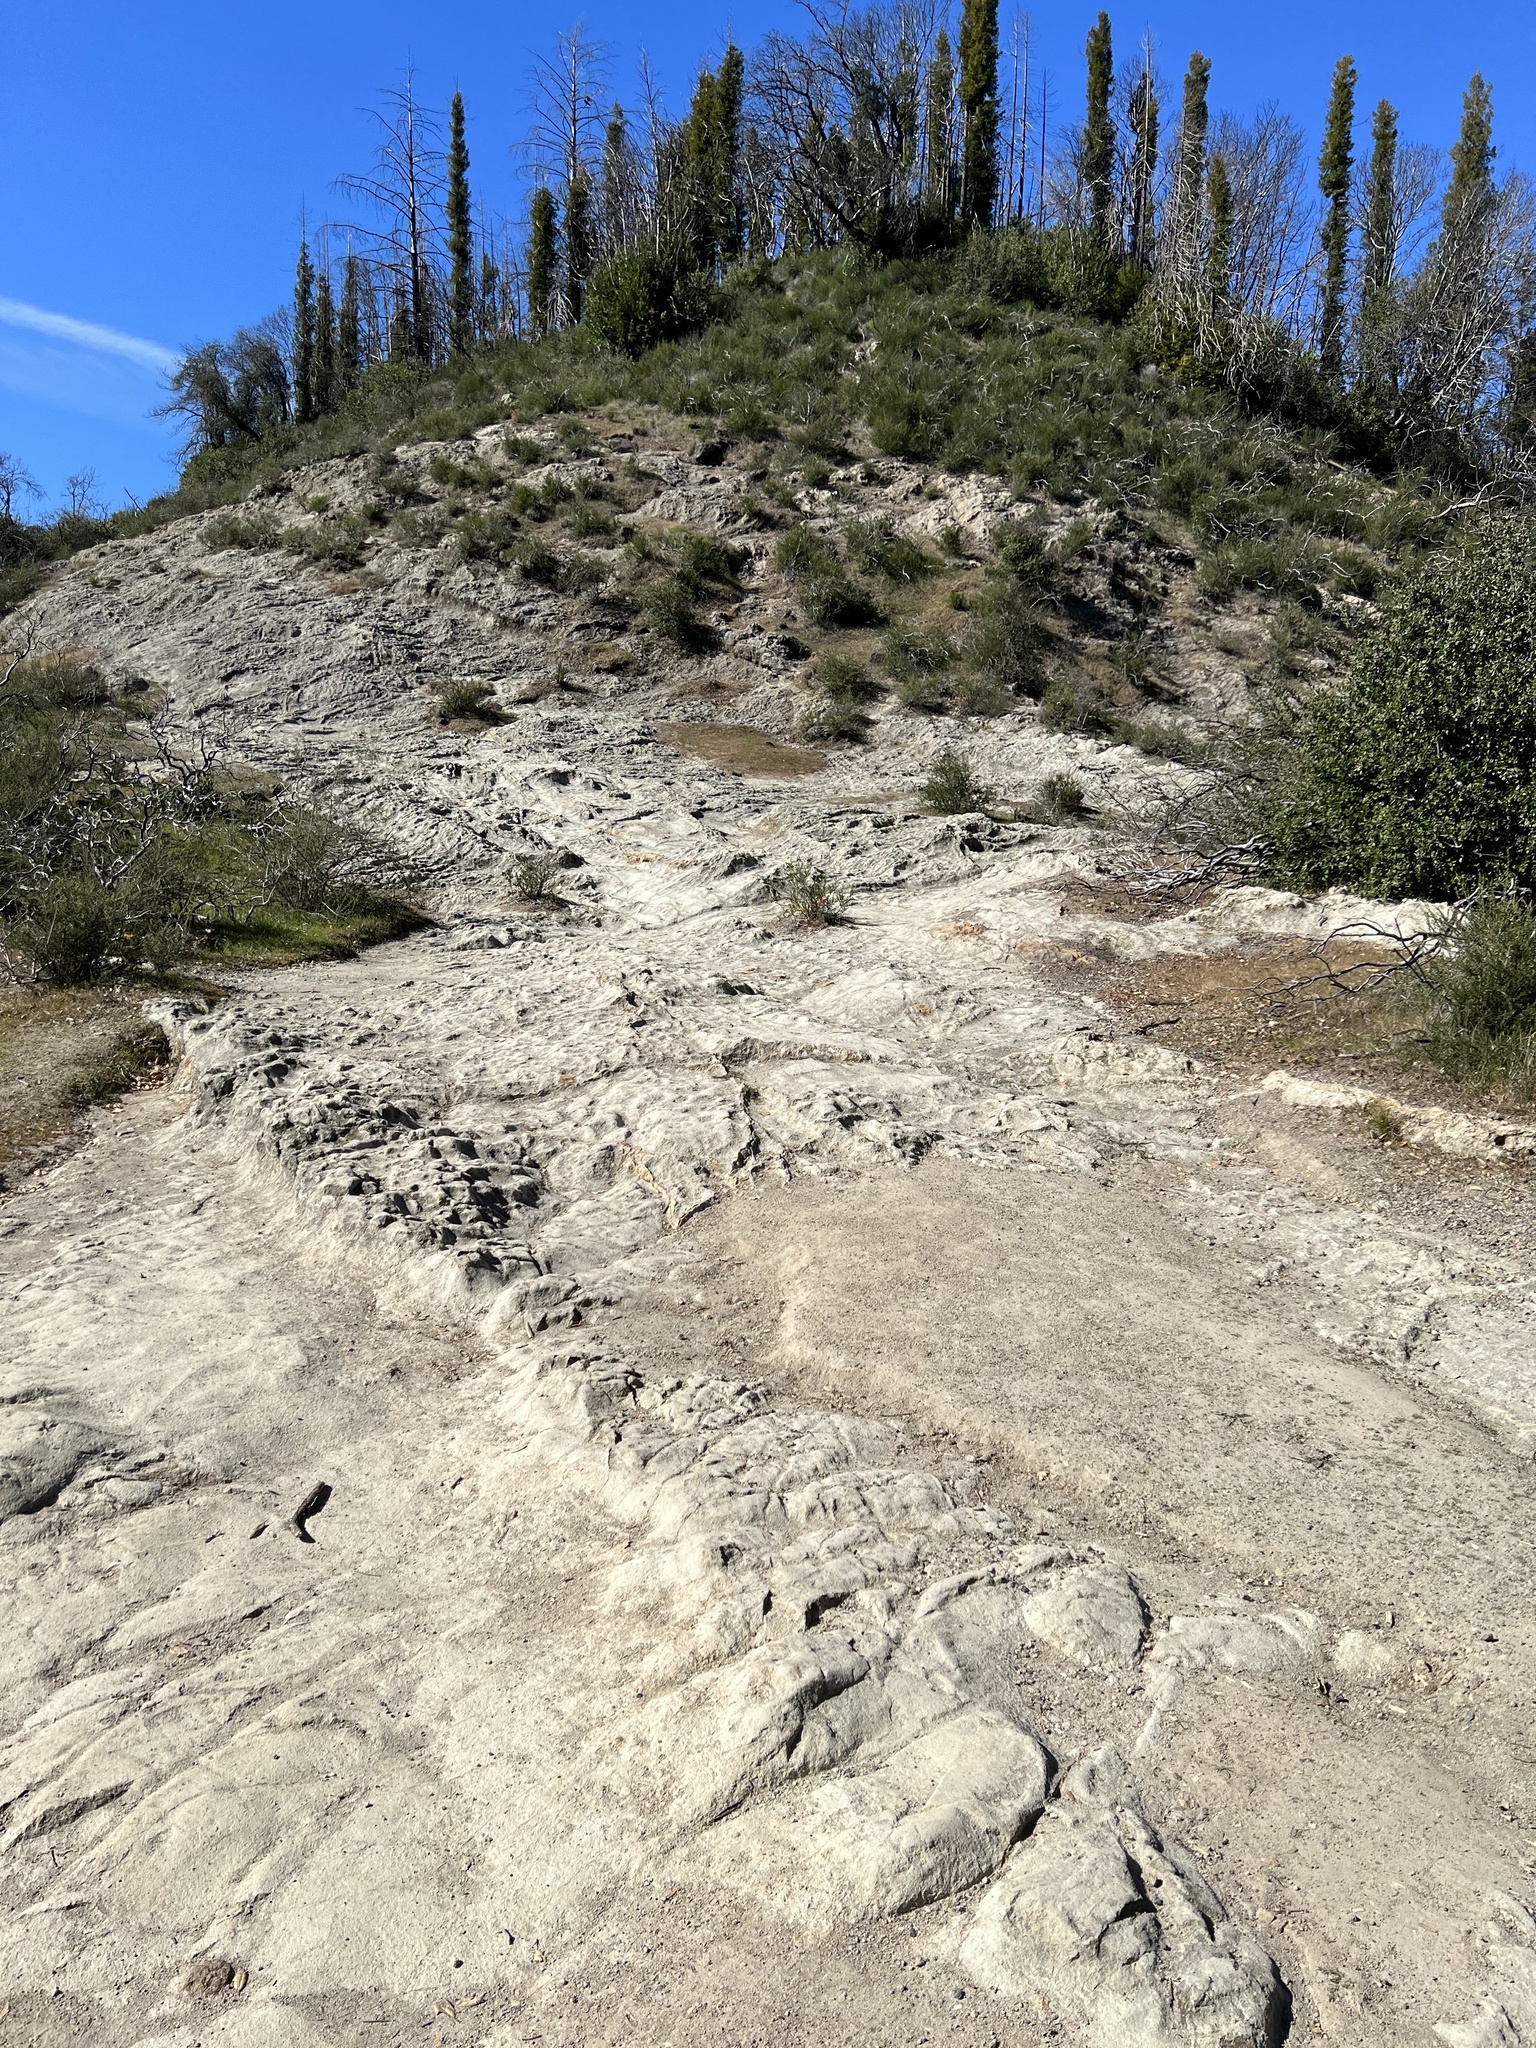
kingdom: Plantae
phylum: Tracheophyta
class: Magnoliopsida
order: Lamiales
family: Orobanchaceae
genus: Castilleja
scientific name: Castilleja foliolosa
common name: Woolly indian paintbrush
